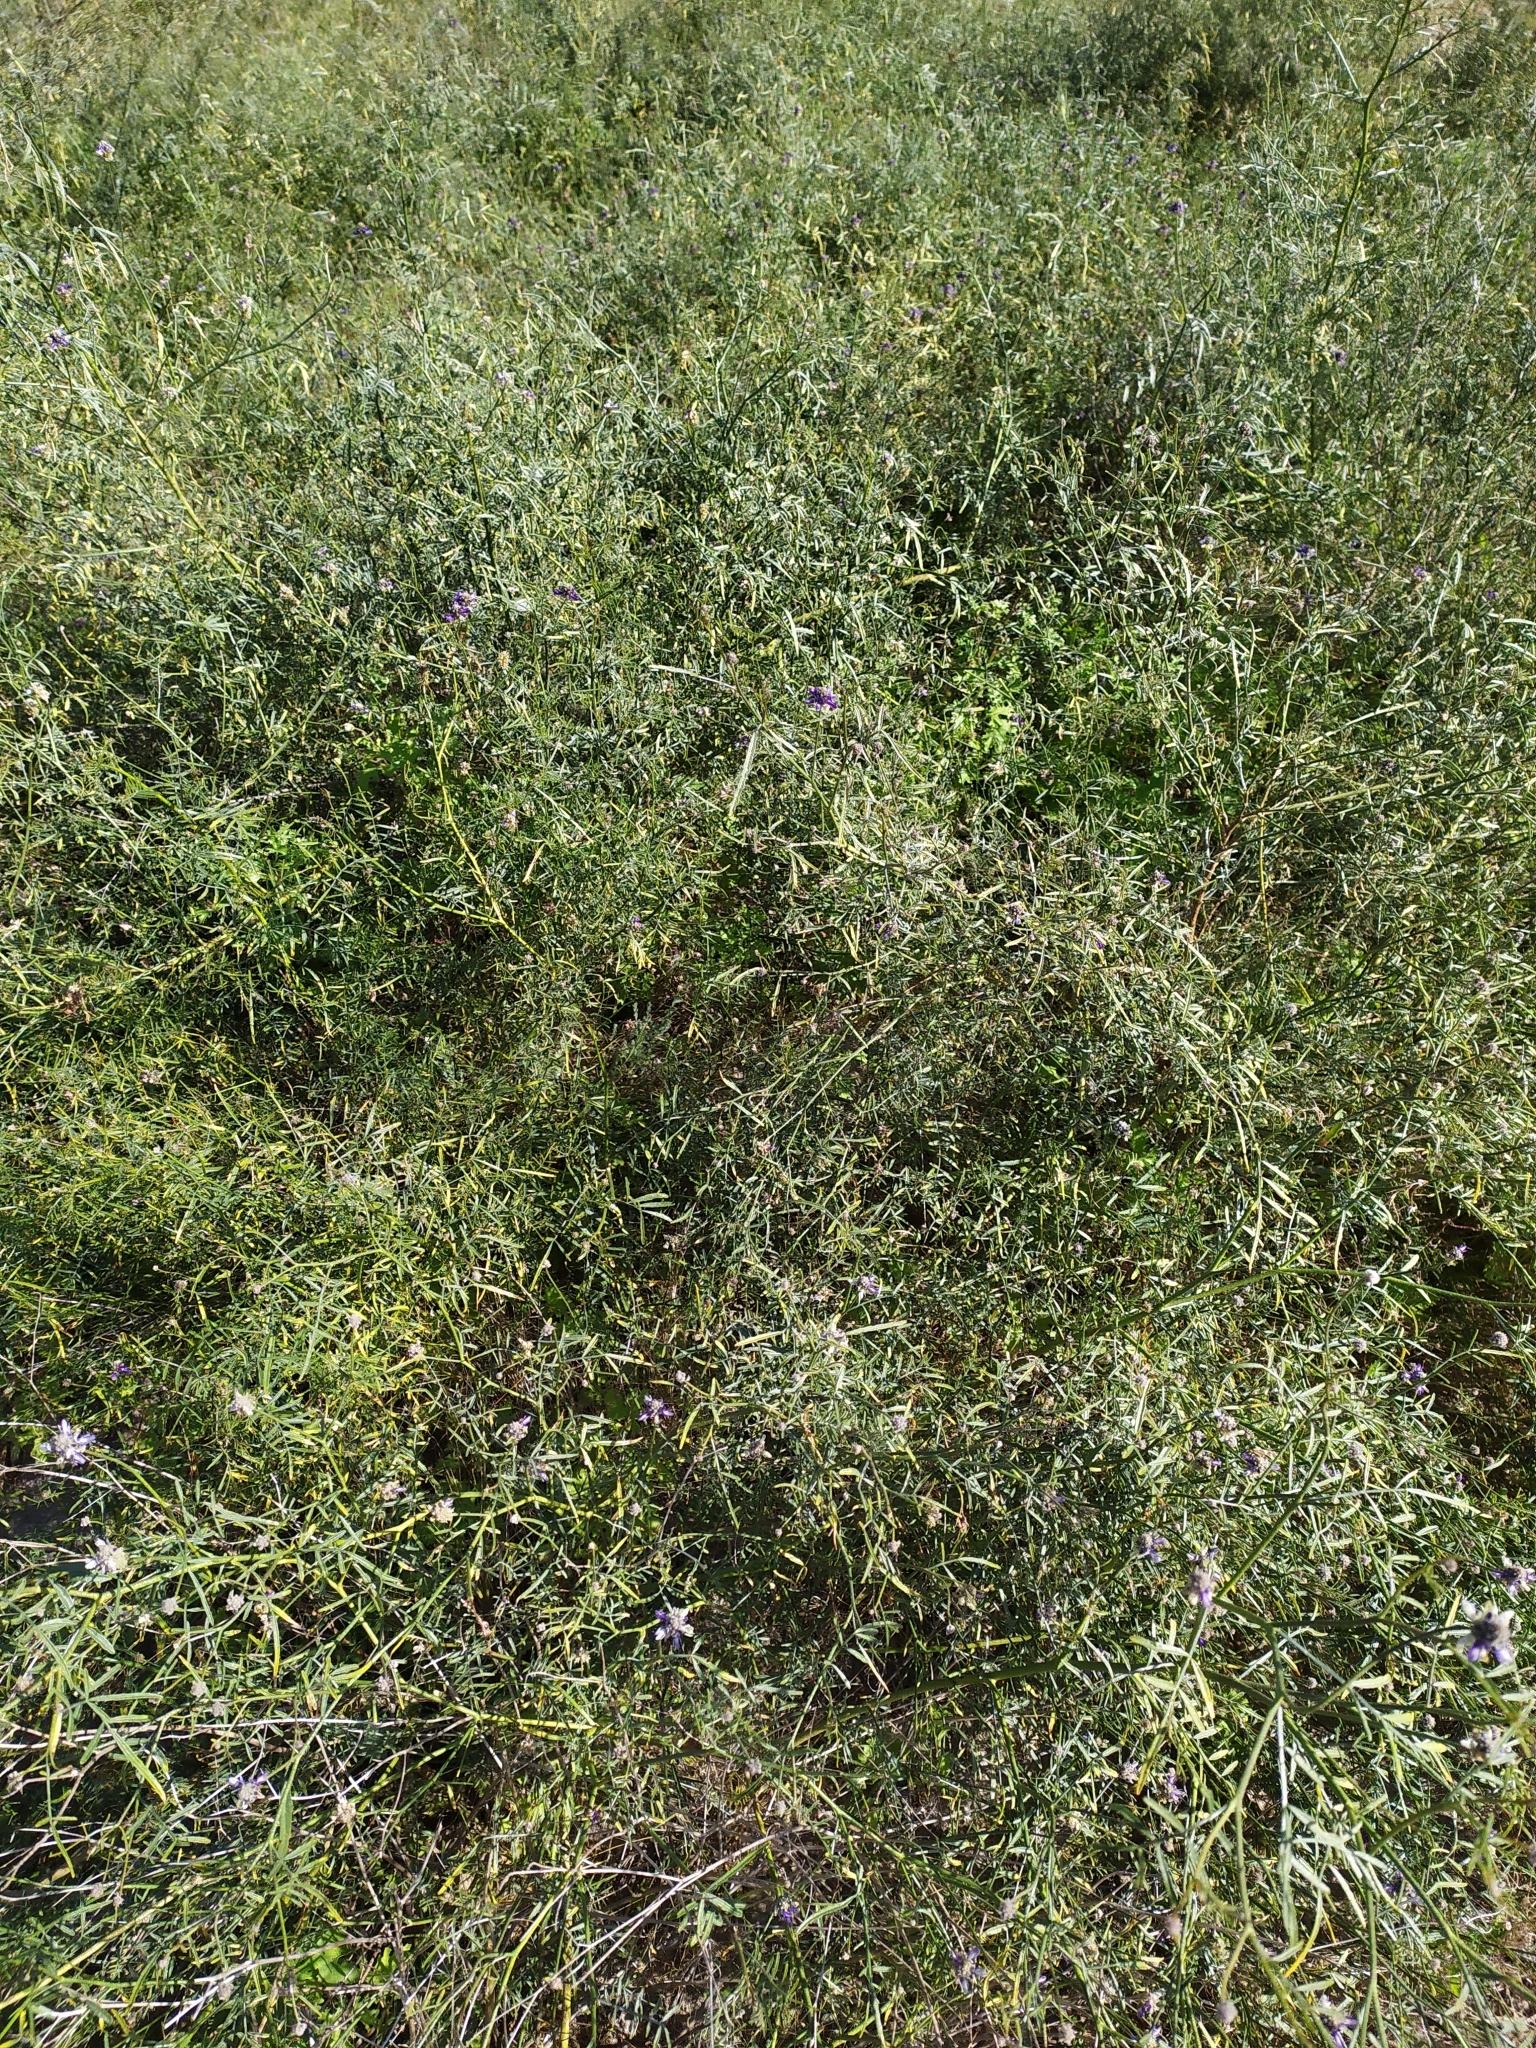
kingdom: Plantae
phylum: Tracheophyta
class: Magnoliopsida
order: Fabales
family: Fabaceae
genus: Psorothamnus
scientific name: Psorothamnus emoryi
